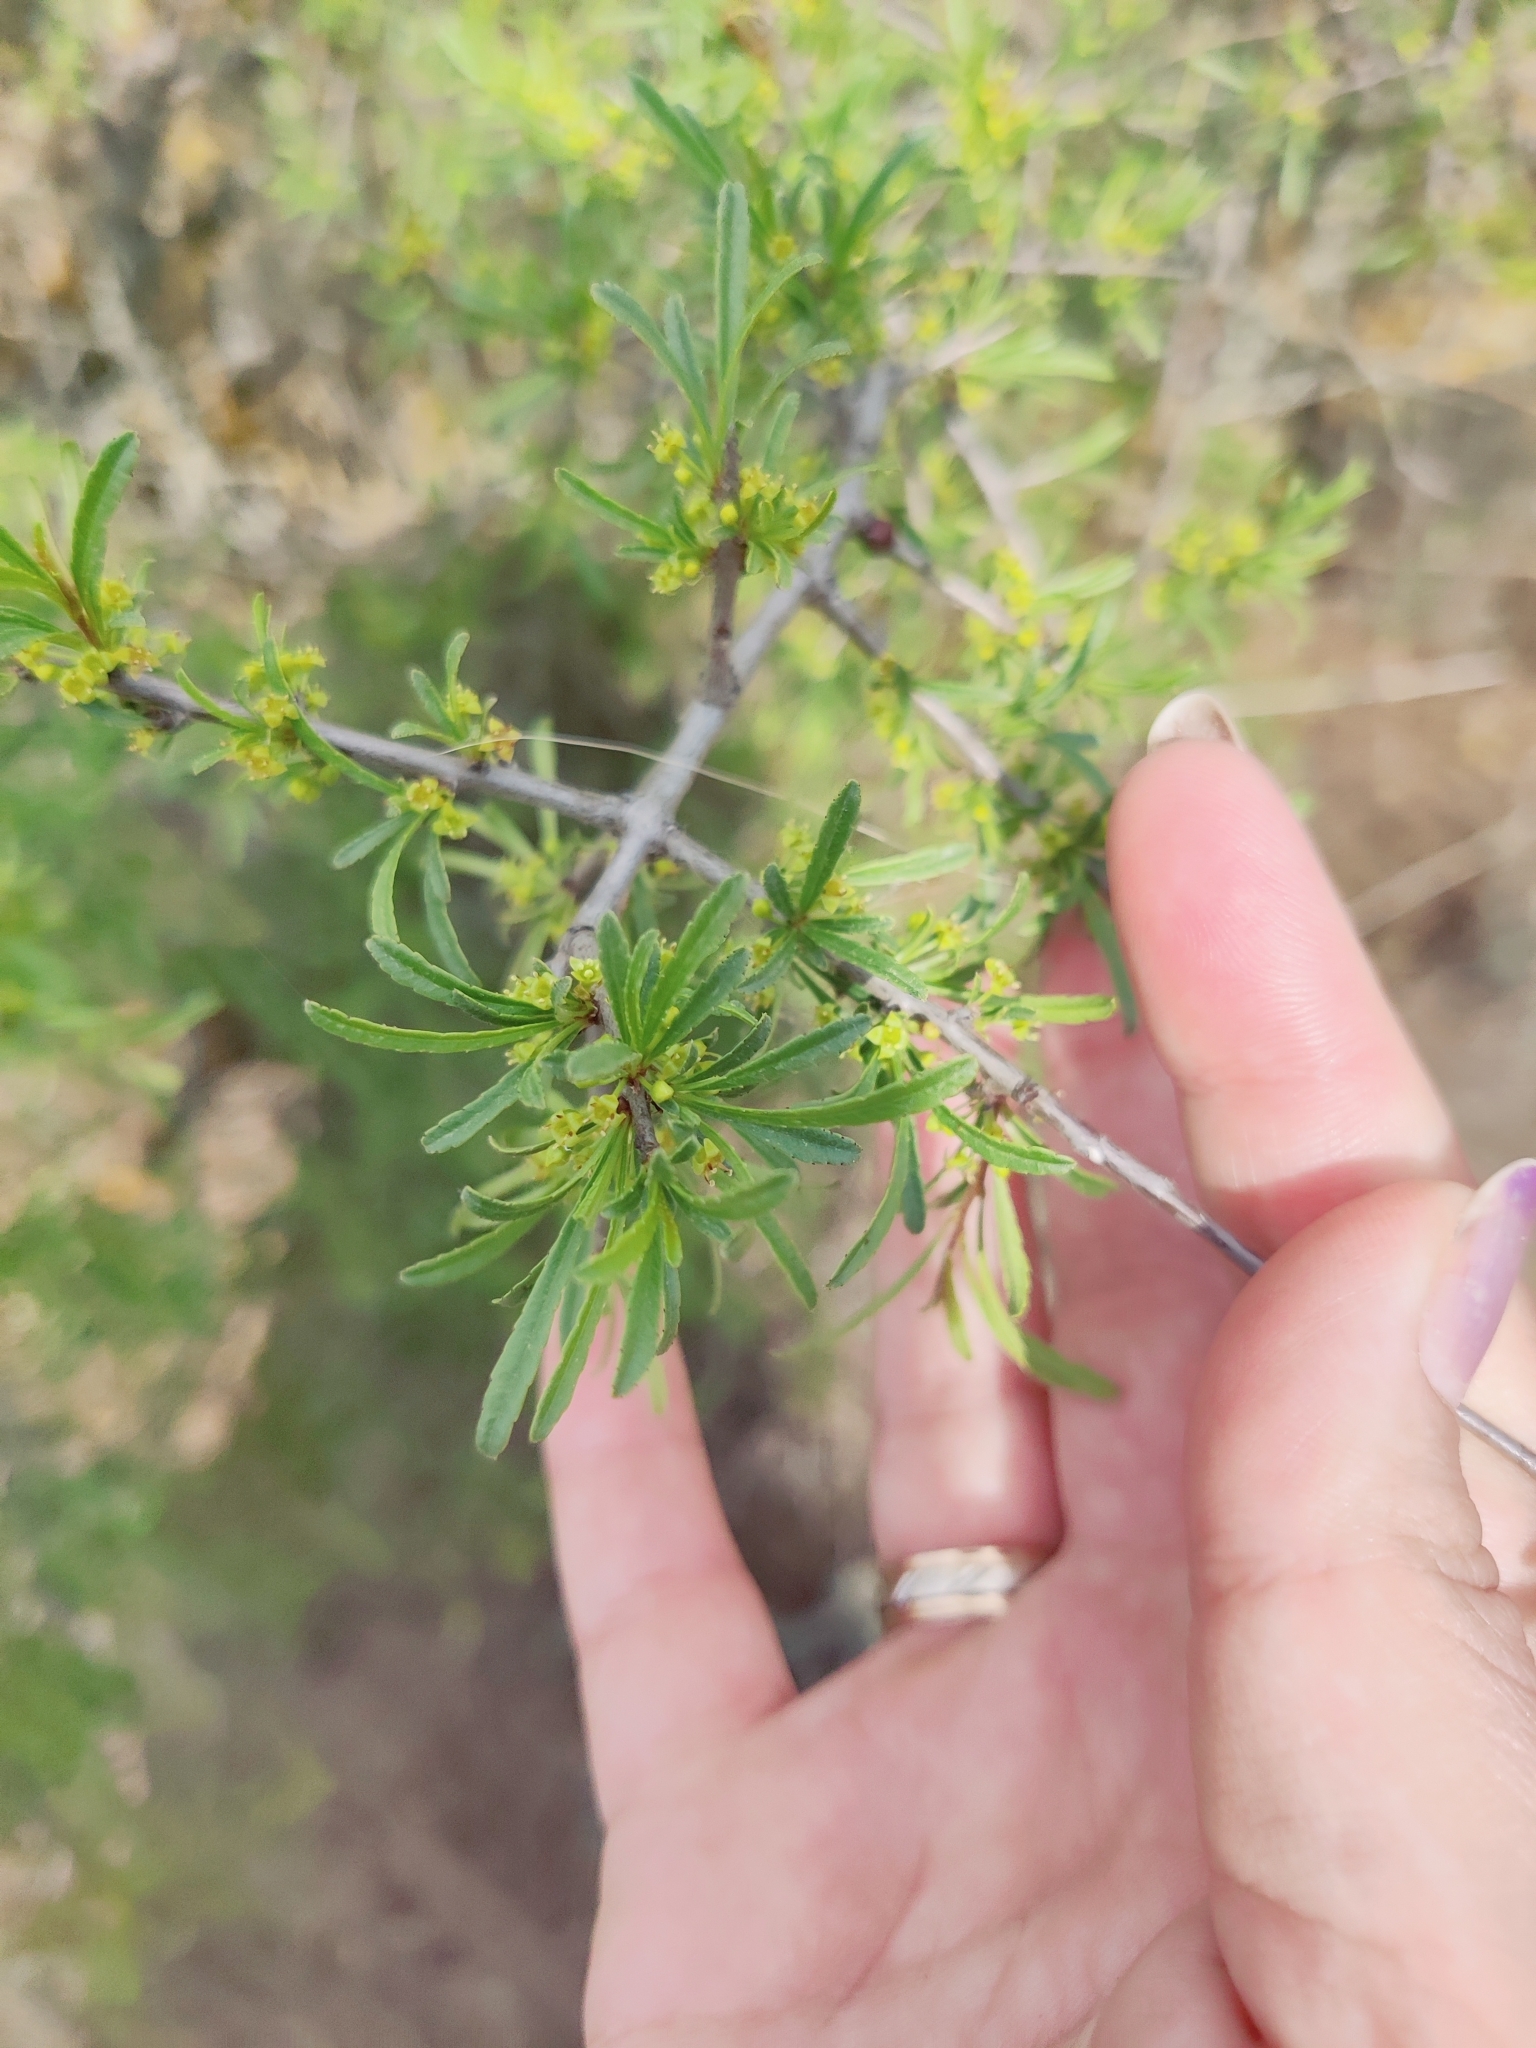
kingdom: Plantae
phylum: Tracheophyta
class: Magnoliopsida
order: Rosales
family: Rhamnaceae
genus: Rhamnus
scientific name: Rhamnus erythroxyloides
